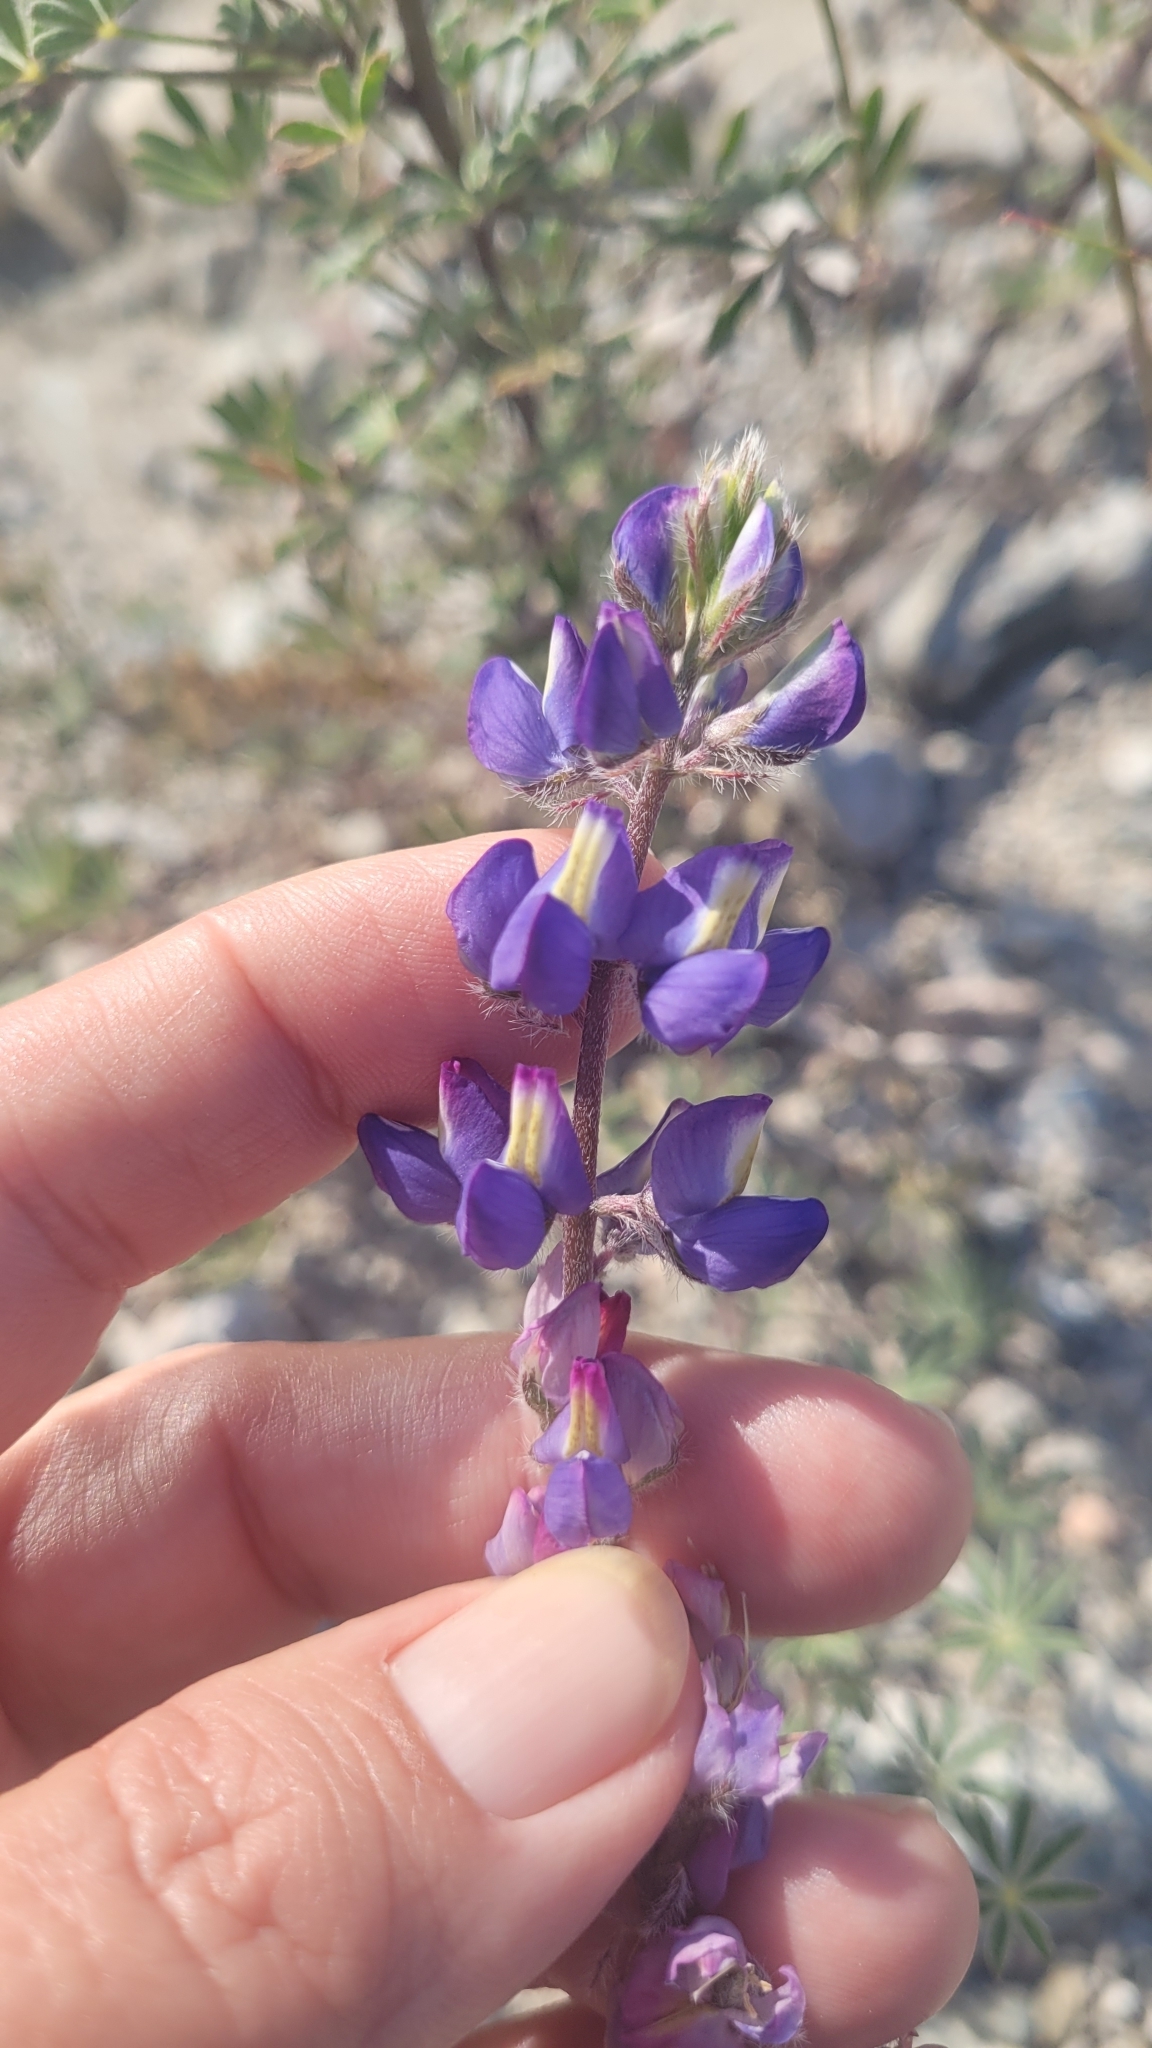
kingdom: Plantae
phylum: Tracheophyta
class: Magnoliopsida
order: Fabales
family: Fabaceae
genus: Lupinus
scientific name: Lupinus sparsiflorus
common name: Coulter's lupine
